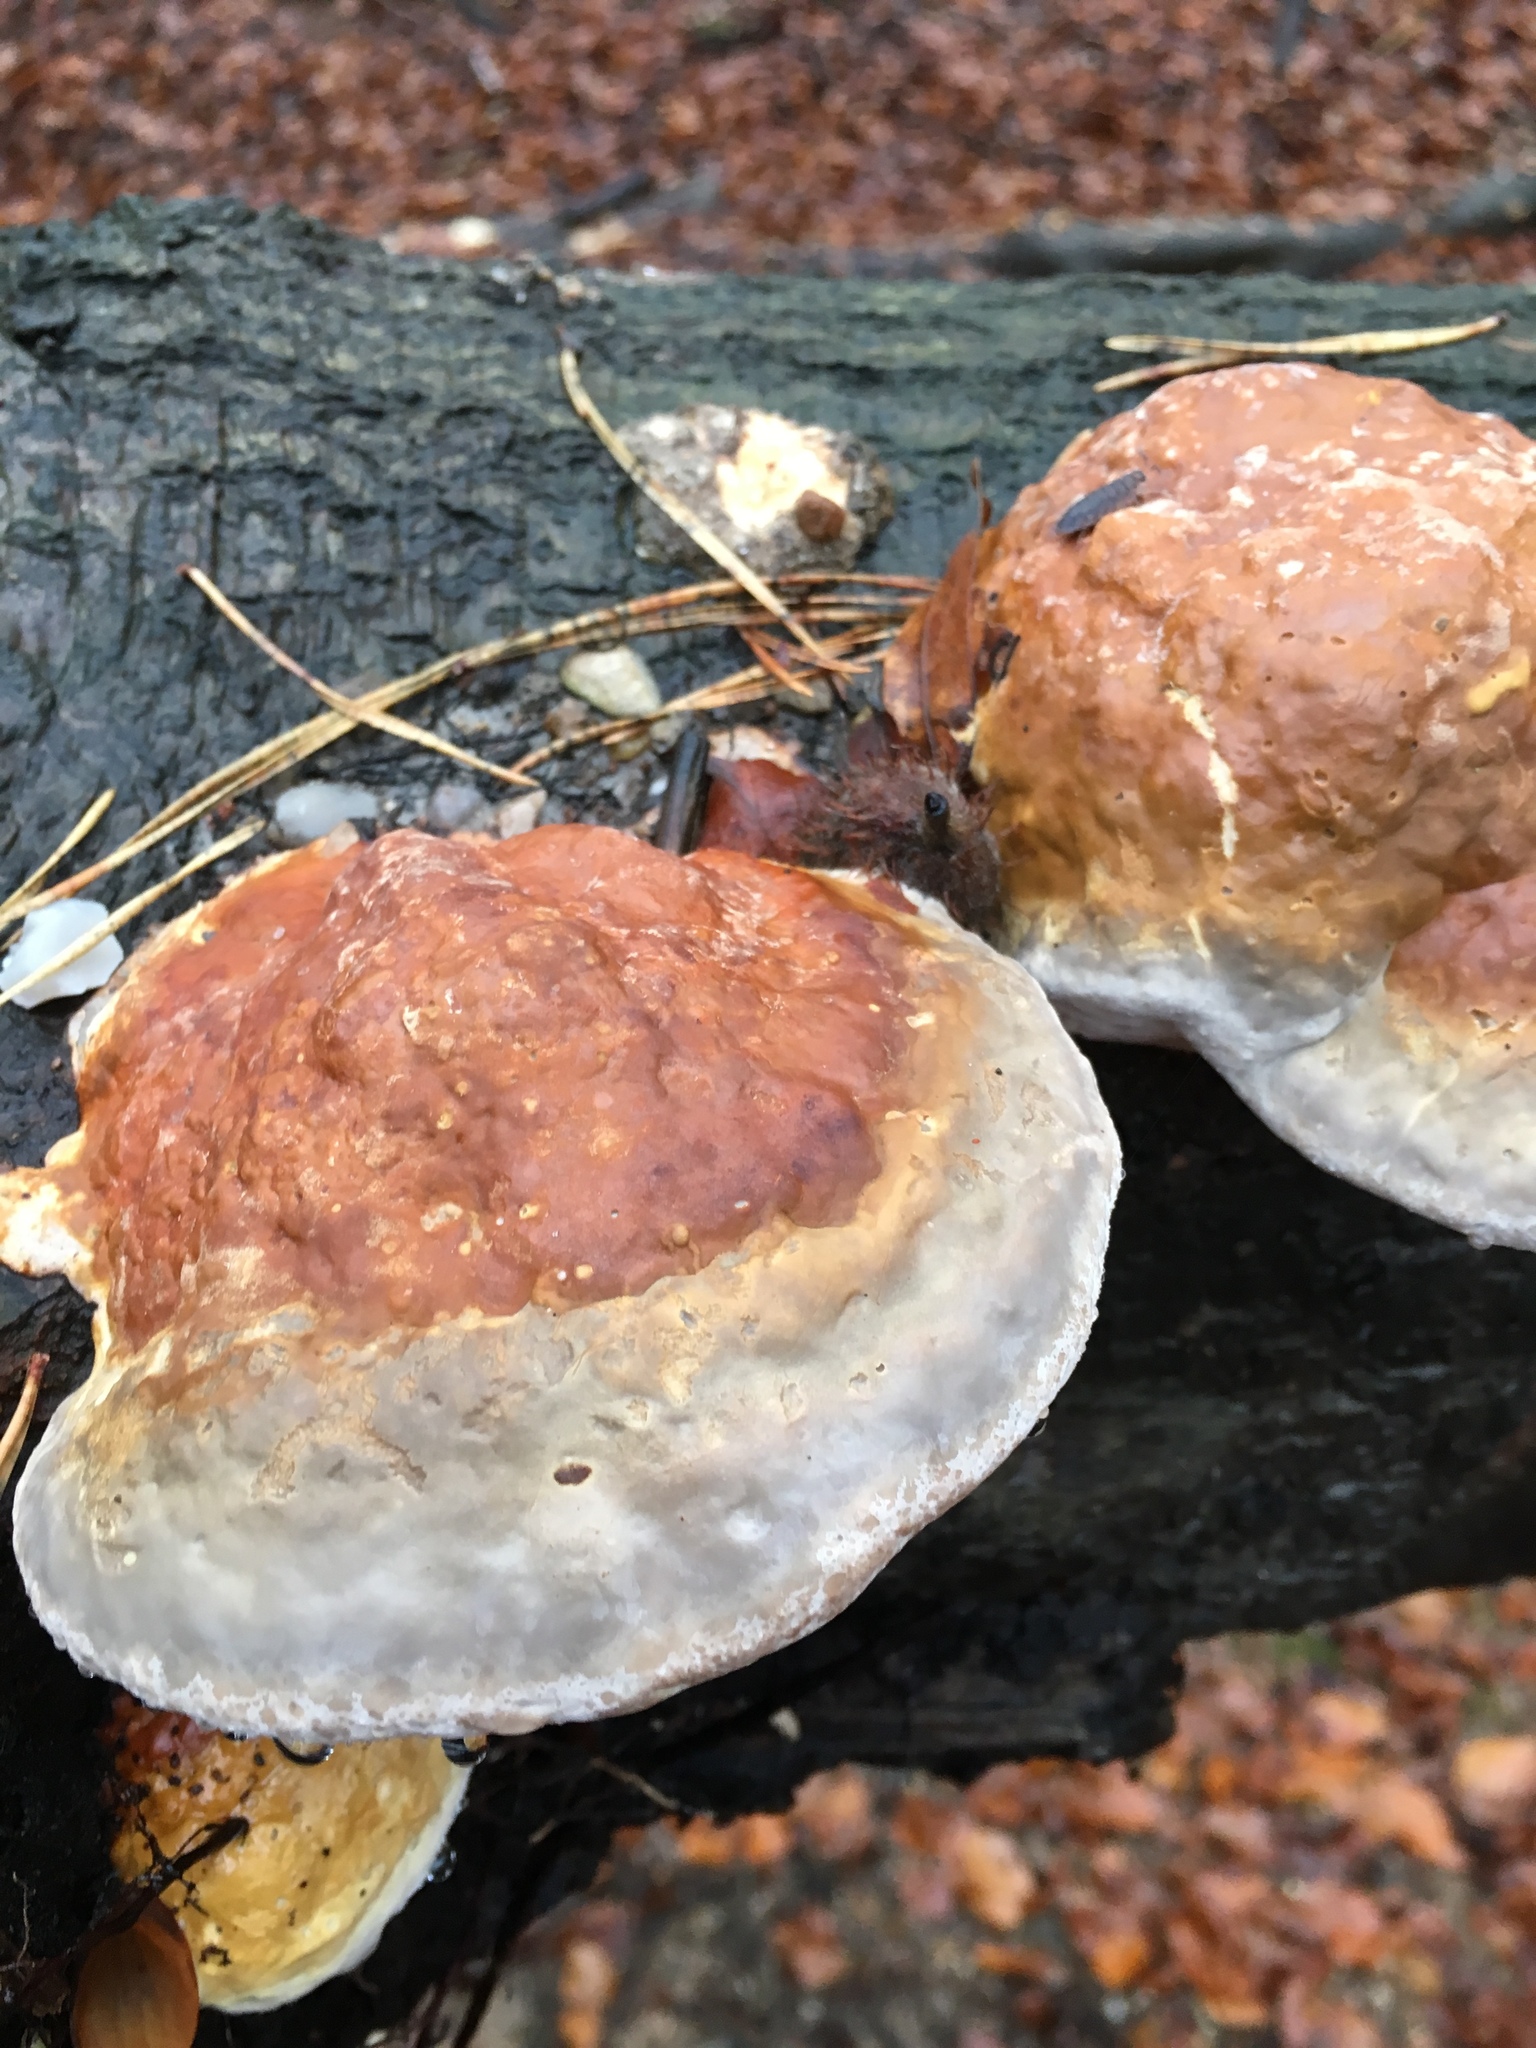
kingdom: Fungi
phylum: Basidiomycota
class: Agaricomycetes
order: Polyporales
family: Fomitopsidaceae
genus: Fomitopsis
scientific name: Fomitopsis pinicola
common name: Red-belted bracket
